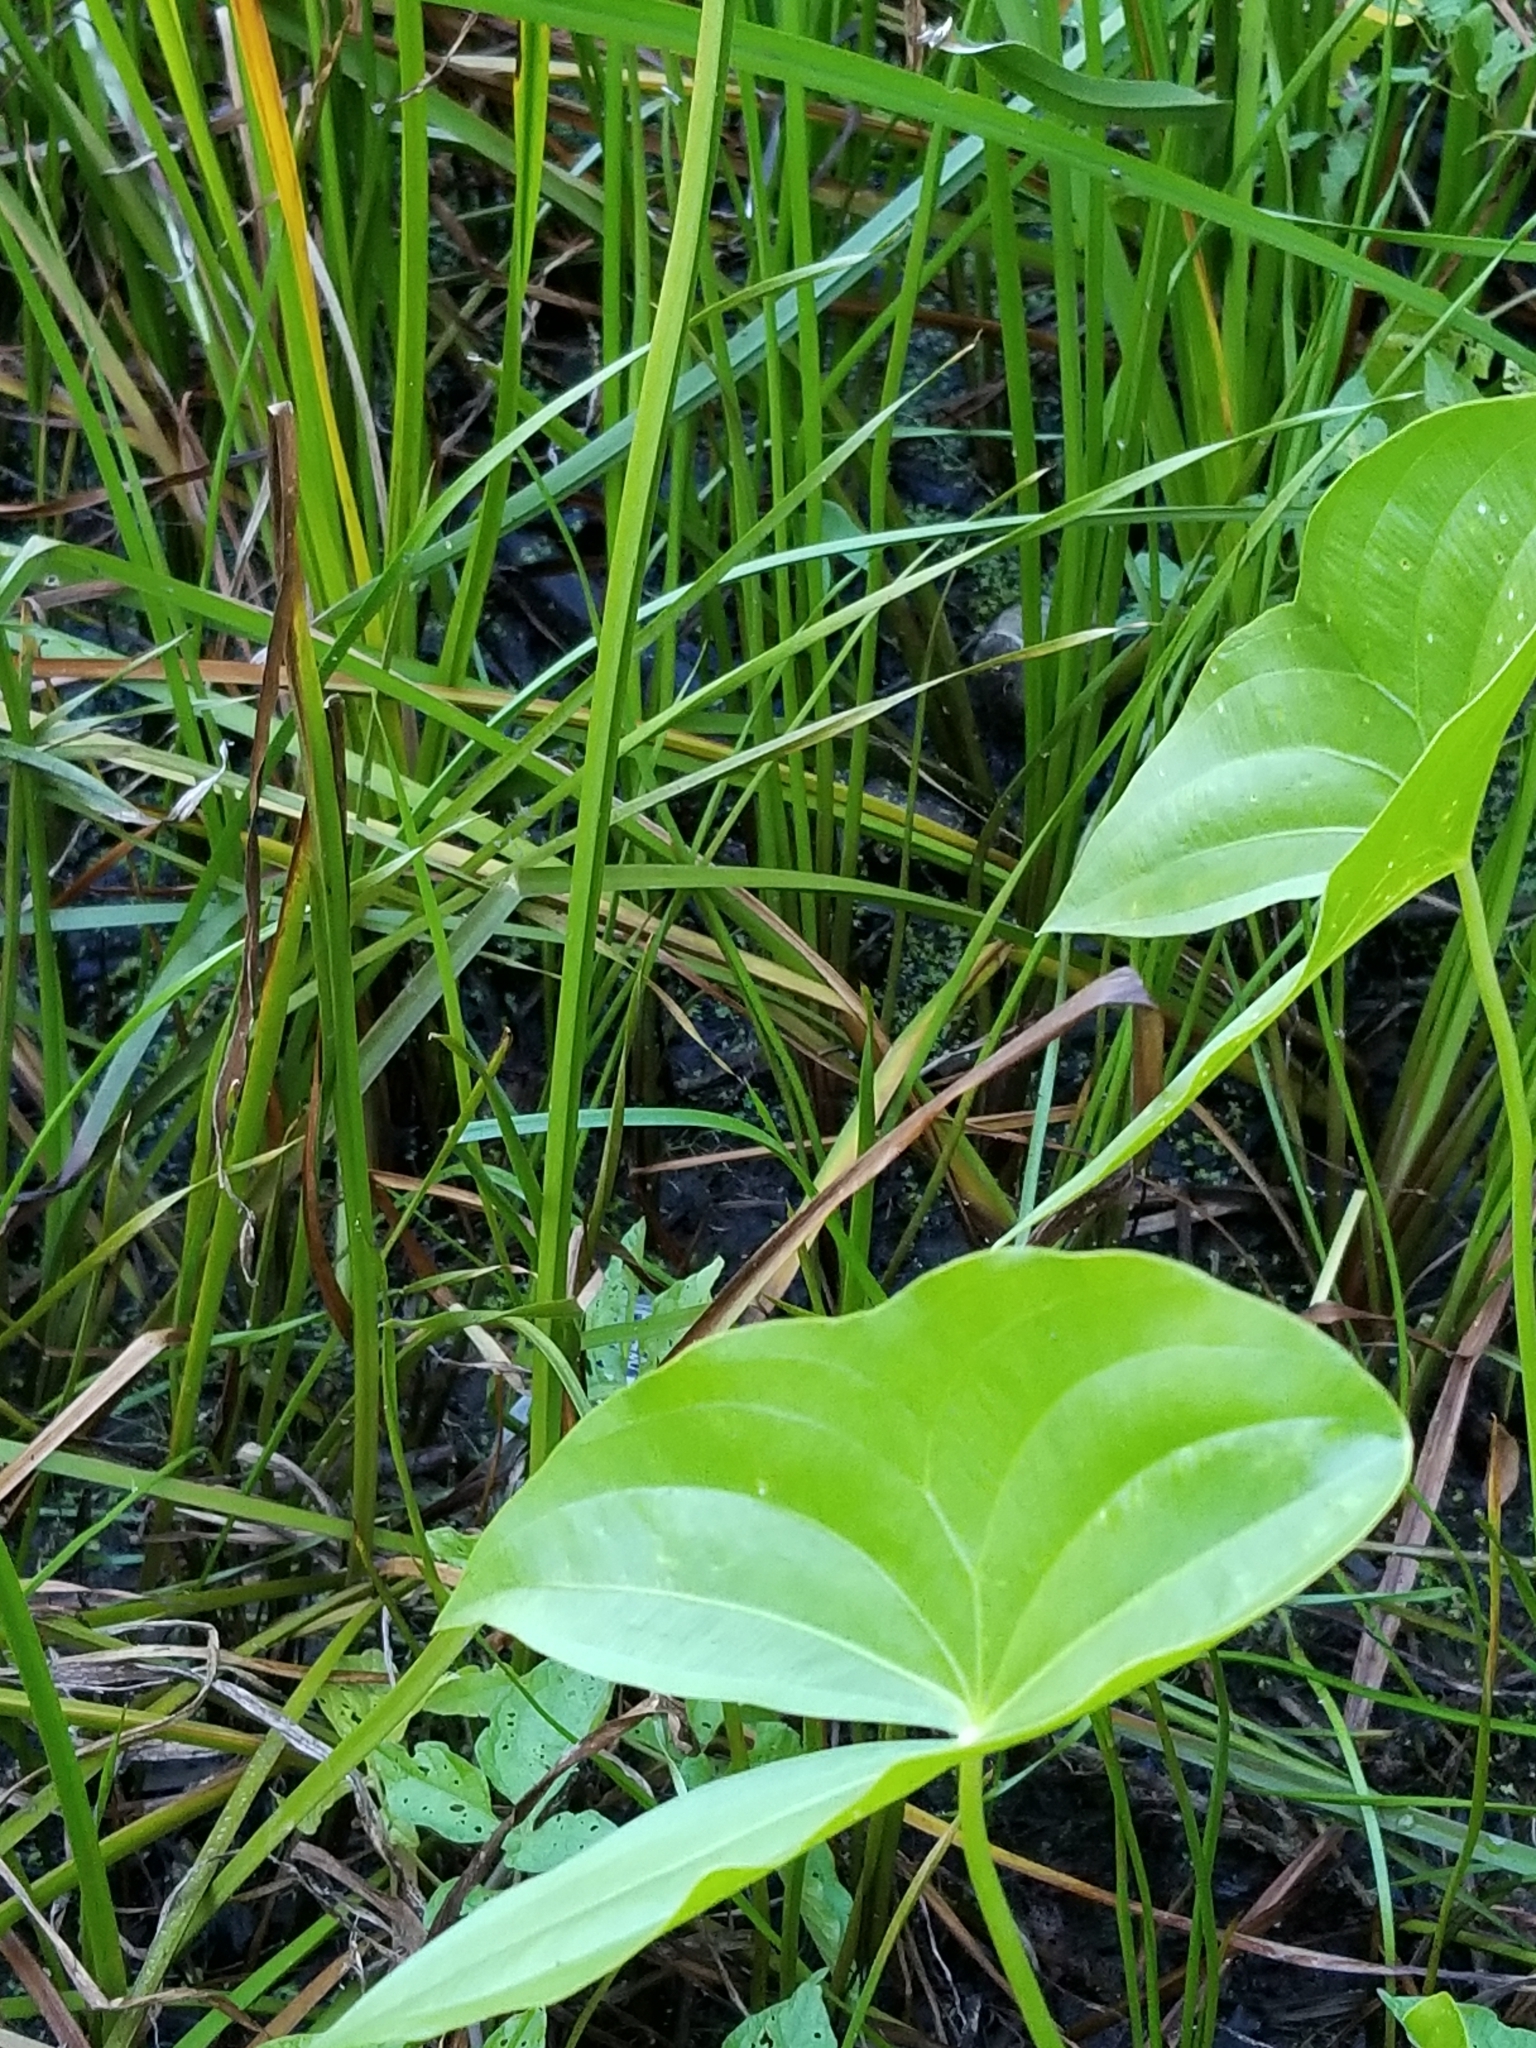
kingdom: Plantae
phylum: Tracheophyta
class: Liliopsida
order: Alismatales
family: Alismataceae
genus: Sagittaria
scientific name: Sagittaria latifolia
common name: Duck-potato
